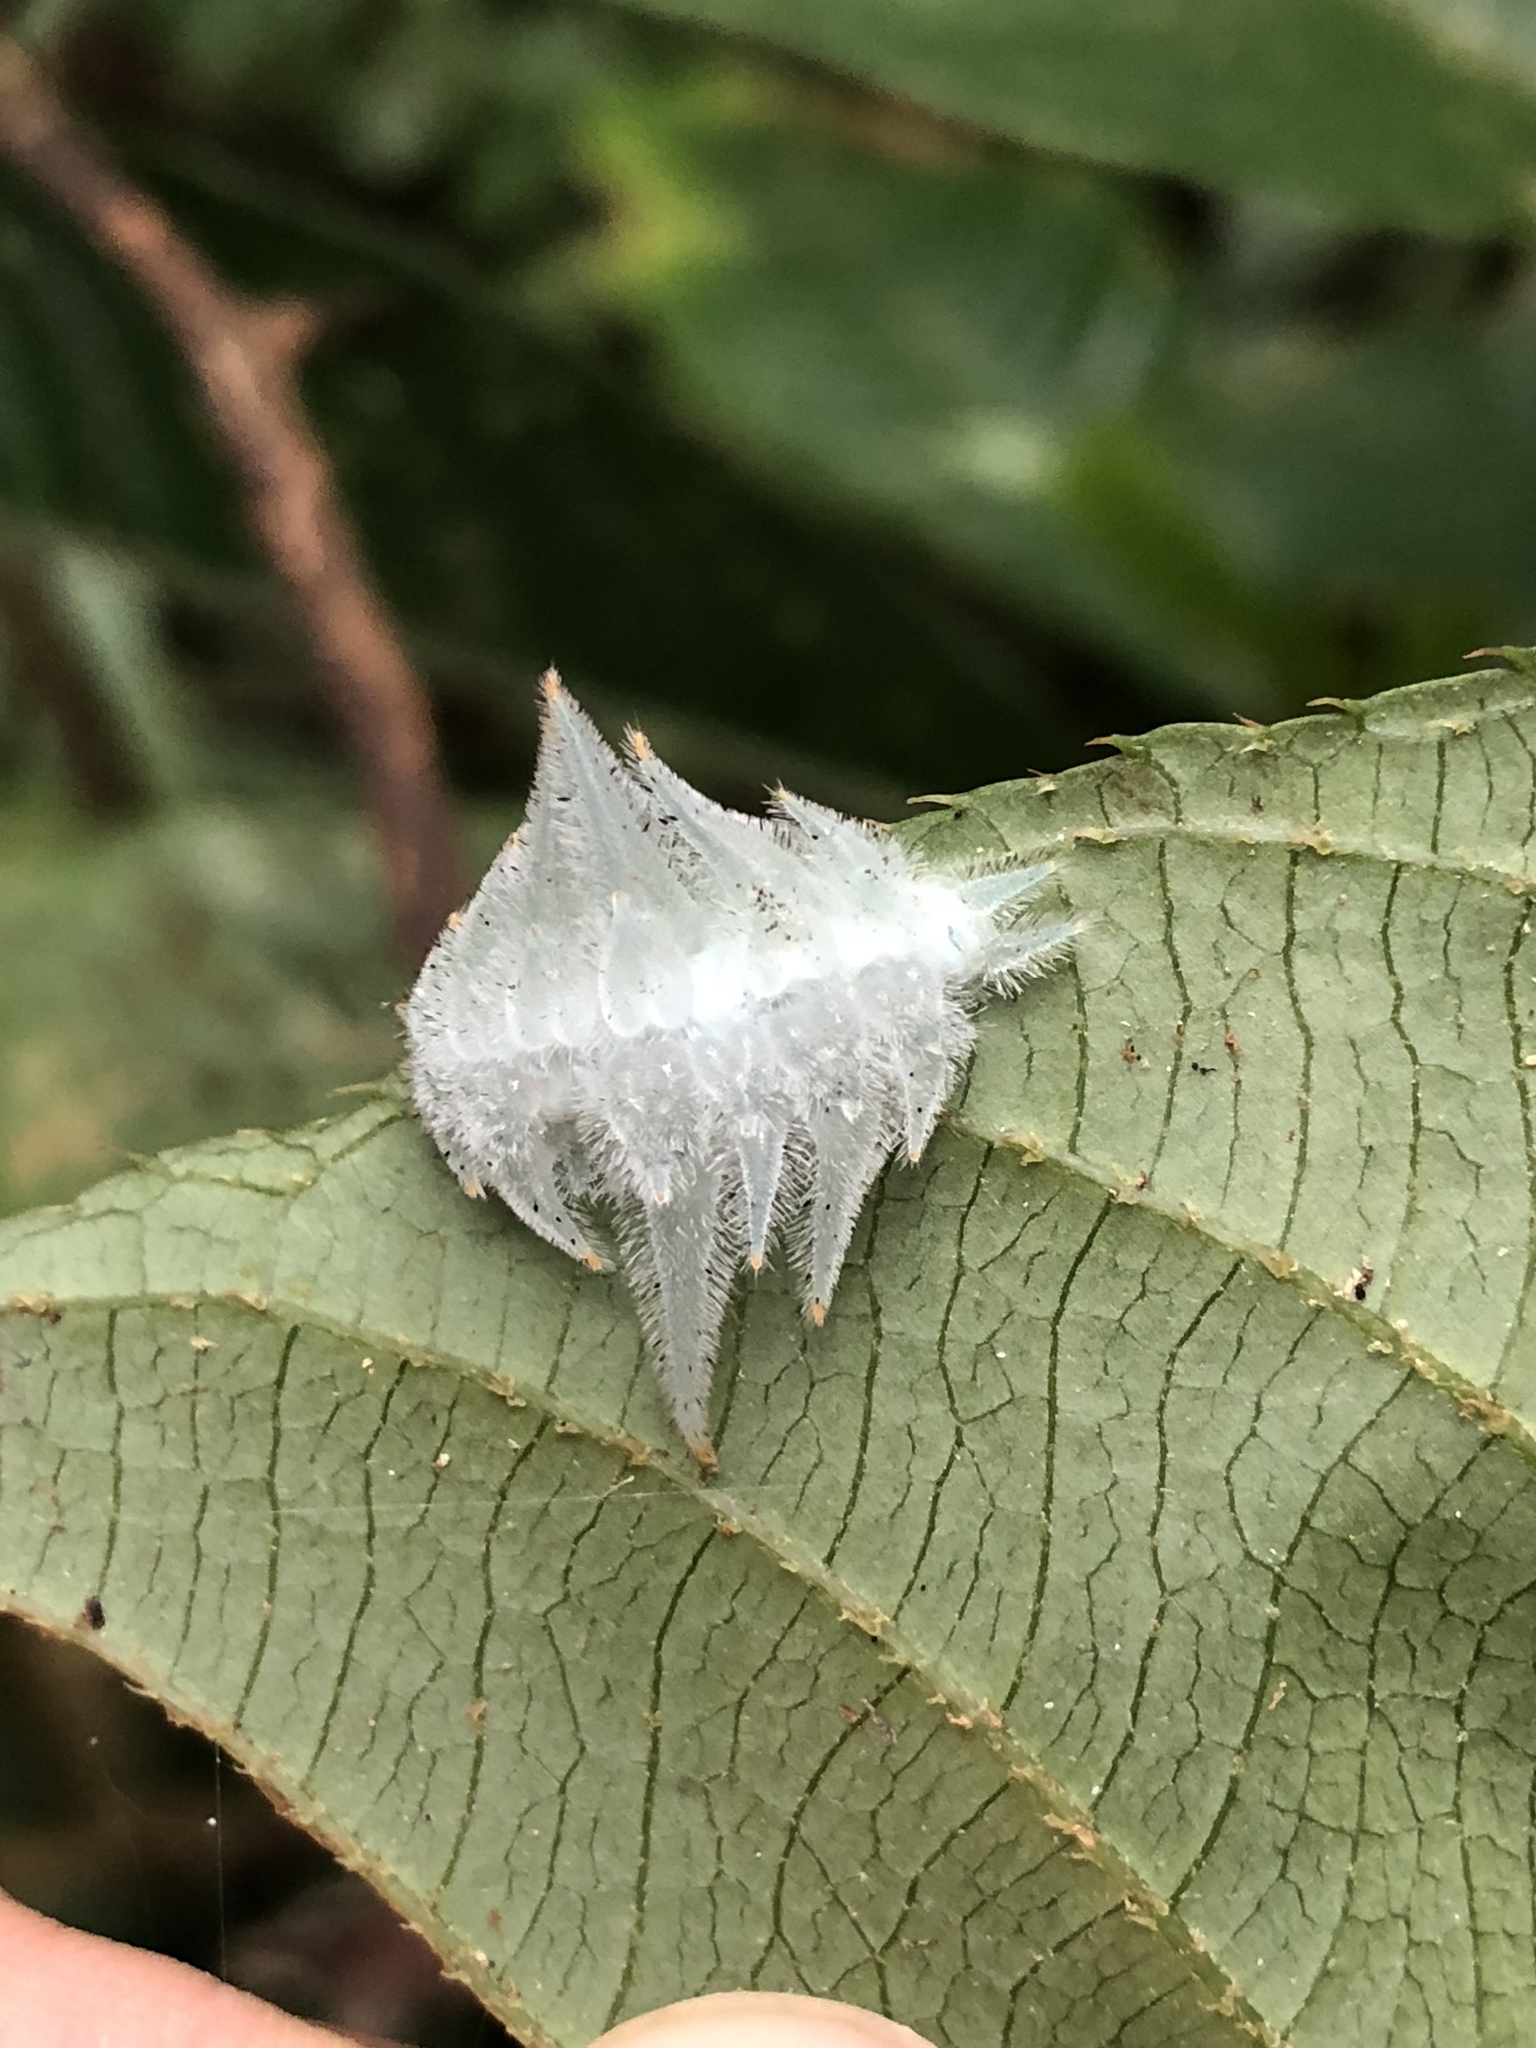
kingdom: Animalia
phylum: Arthropoda
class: Insecta
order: Lepidoptera
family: Limacodidae
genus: Phrixolepia
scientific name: Phrixolepia inouei
